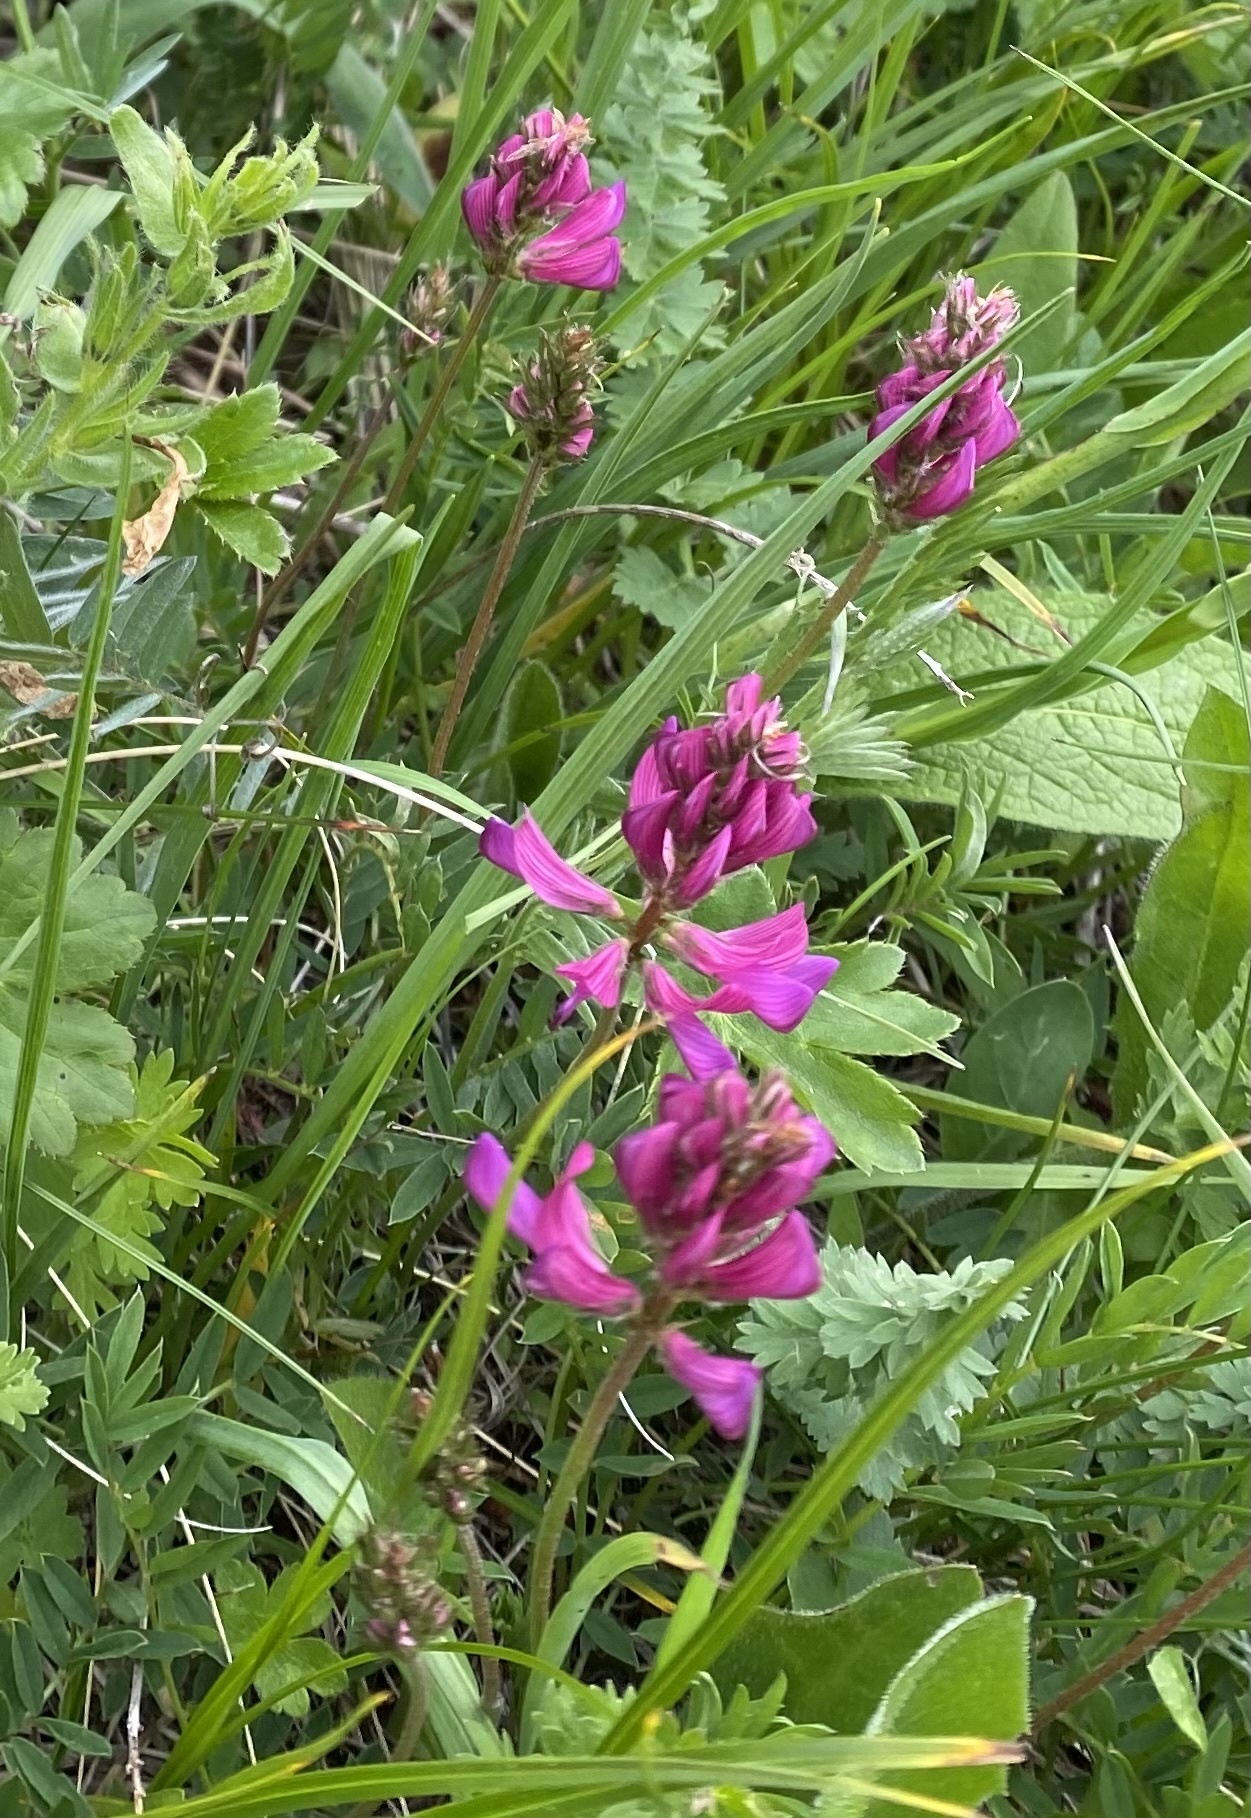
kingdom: Plantae
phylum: Tracheophyta
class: Magnoliopsida
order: Fabales
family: Fabaceae
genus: Onobrychis
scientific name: Onobrychis biebersteinii
